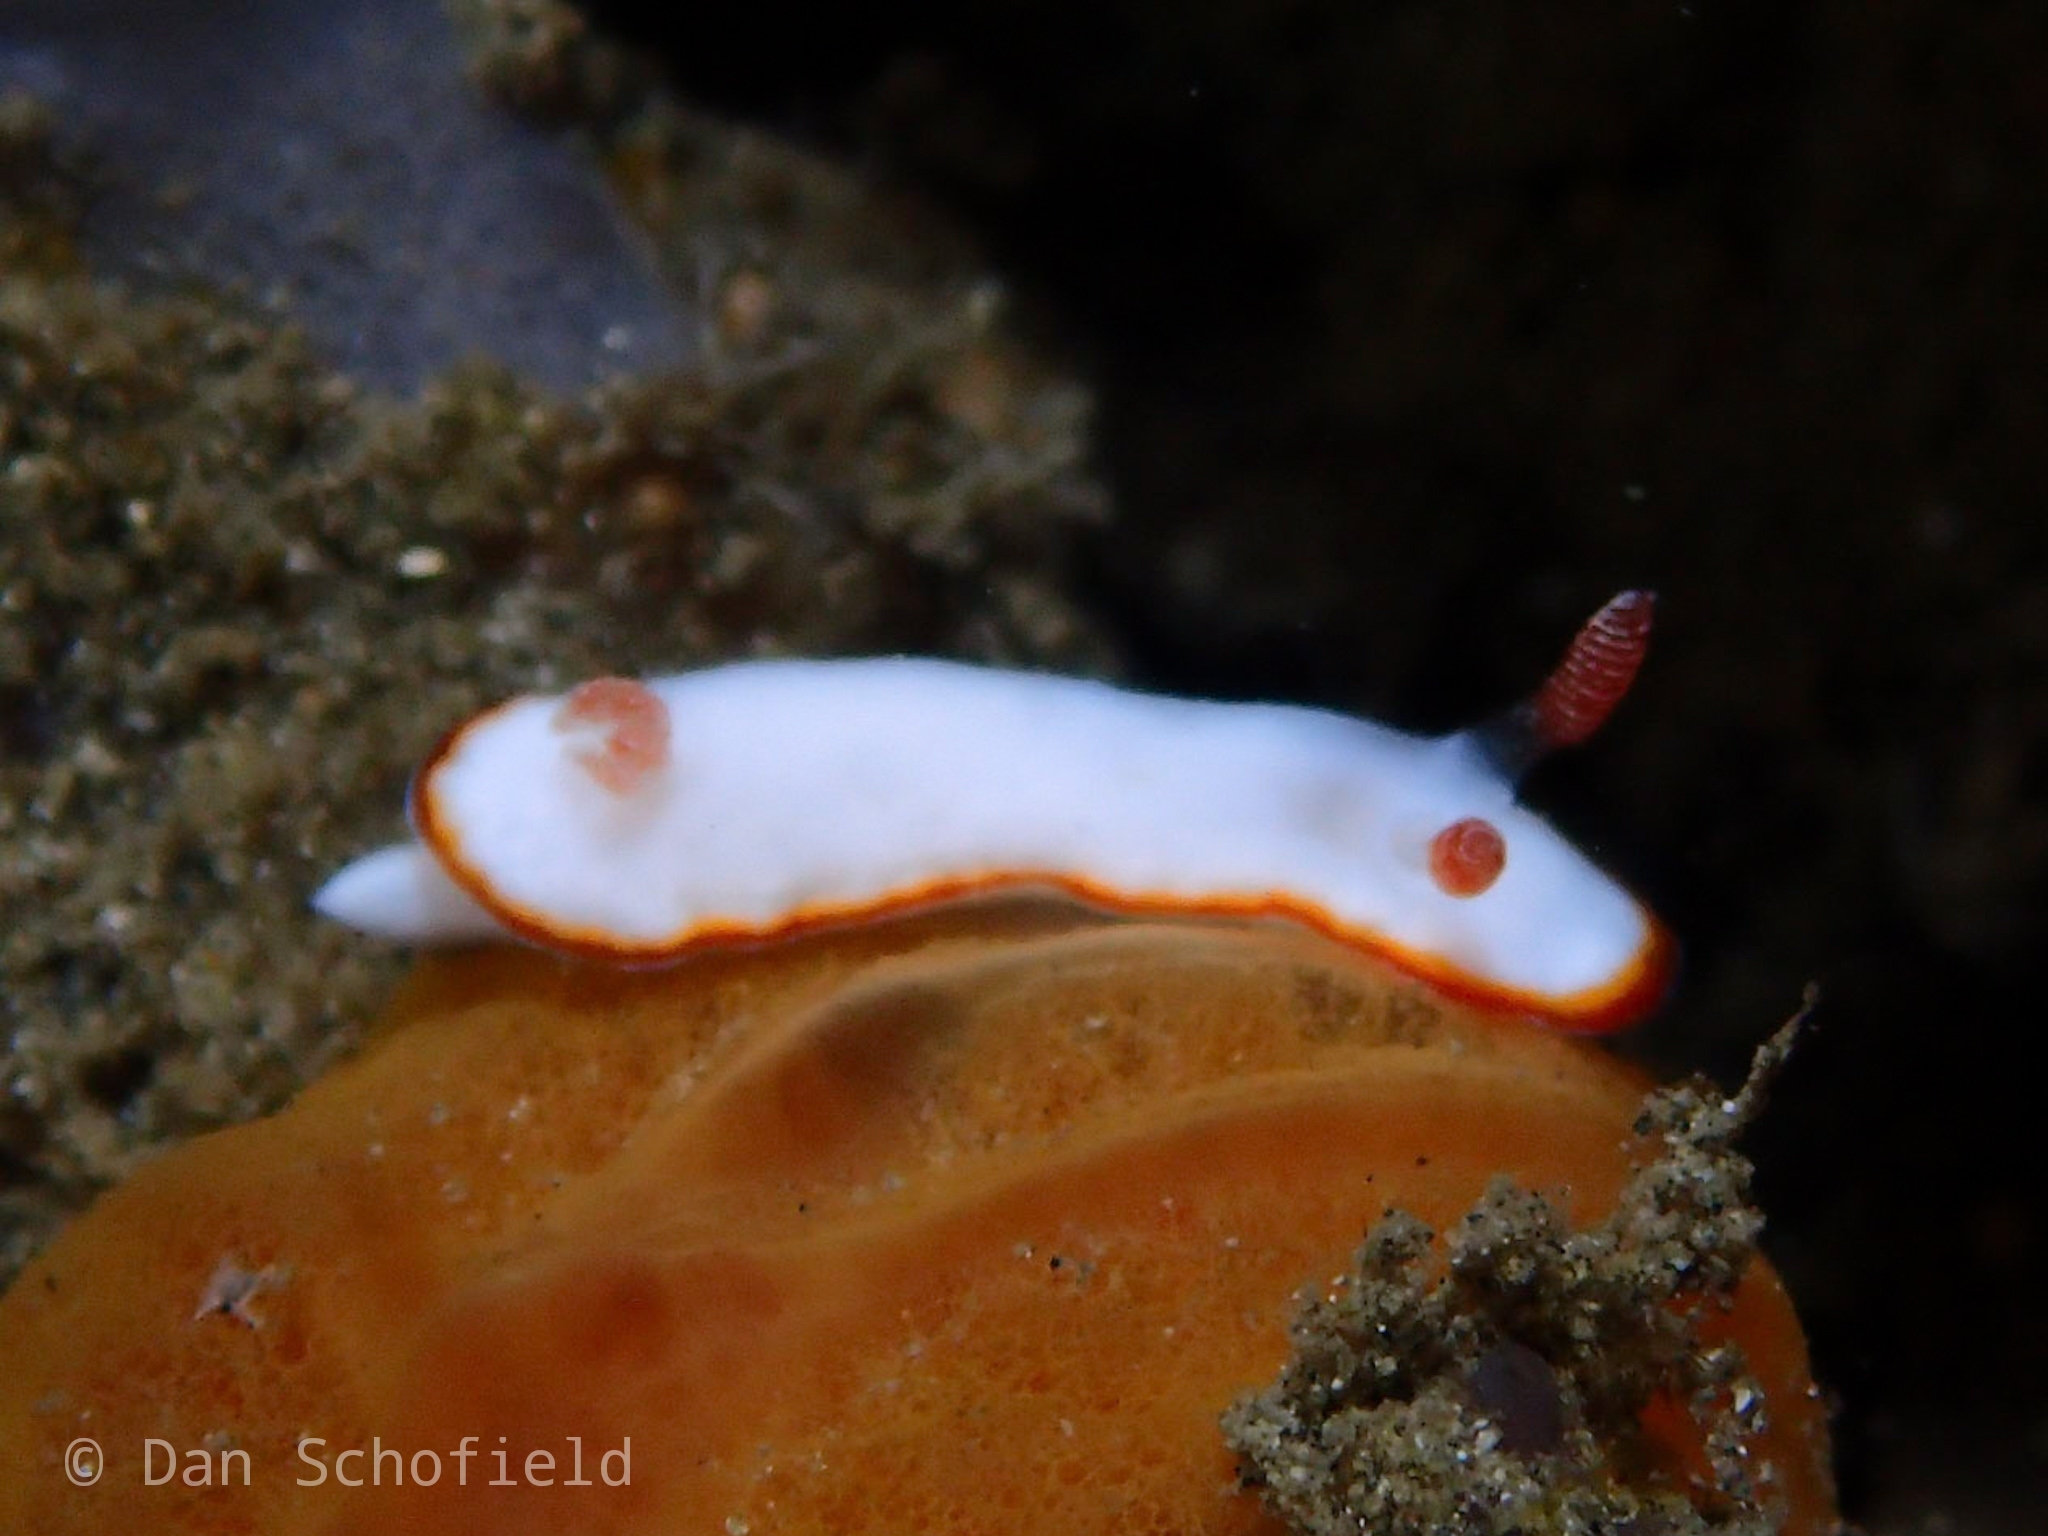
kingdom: Animalia
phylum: Mollusca
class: Gastropoda
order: Nudibranchia
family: Chromodorididae
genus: Goniobranchus
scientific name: Goniobranchus verrieri
